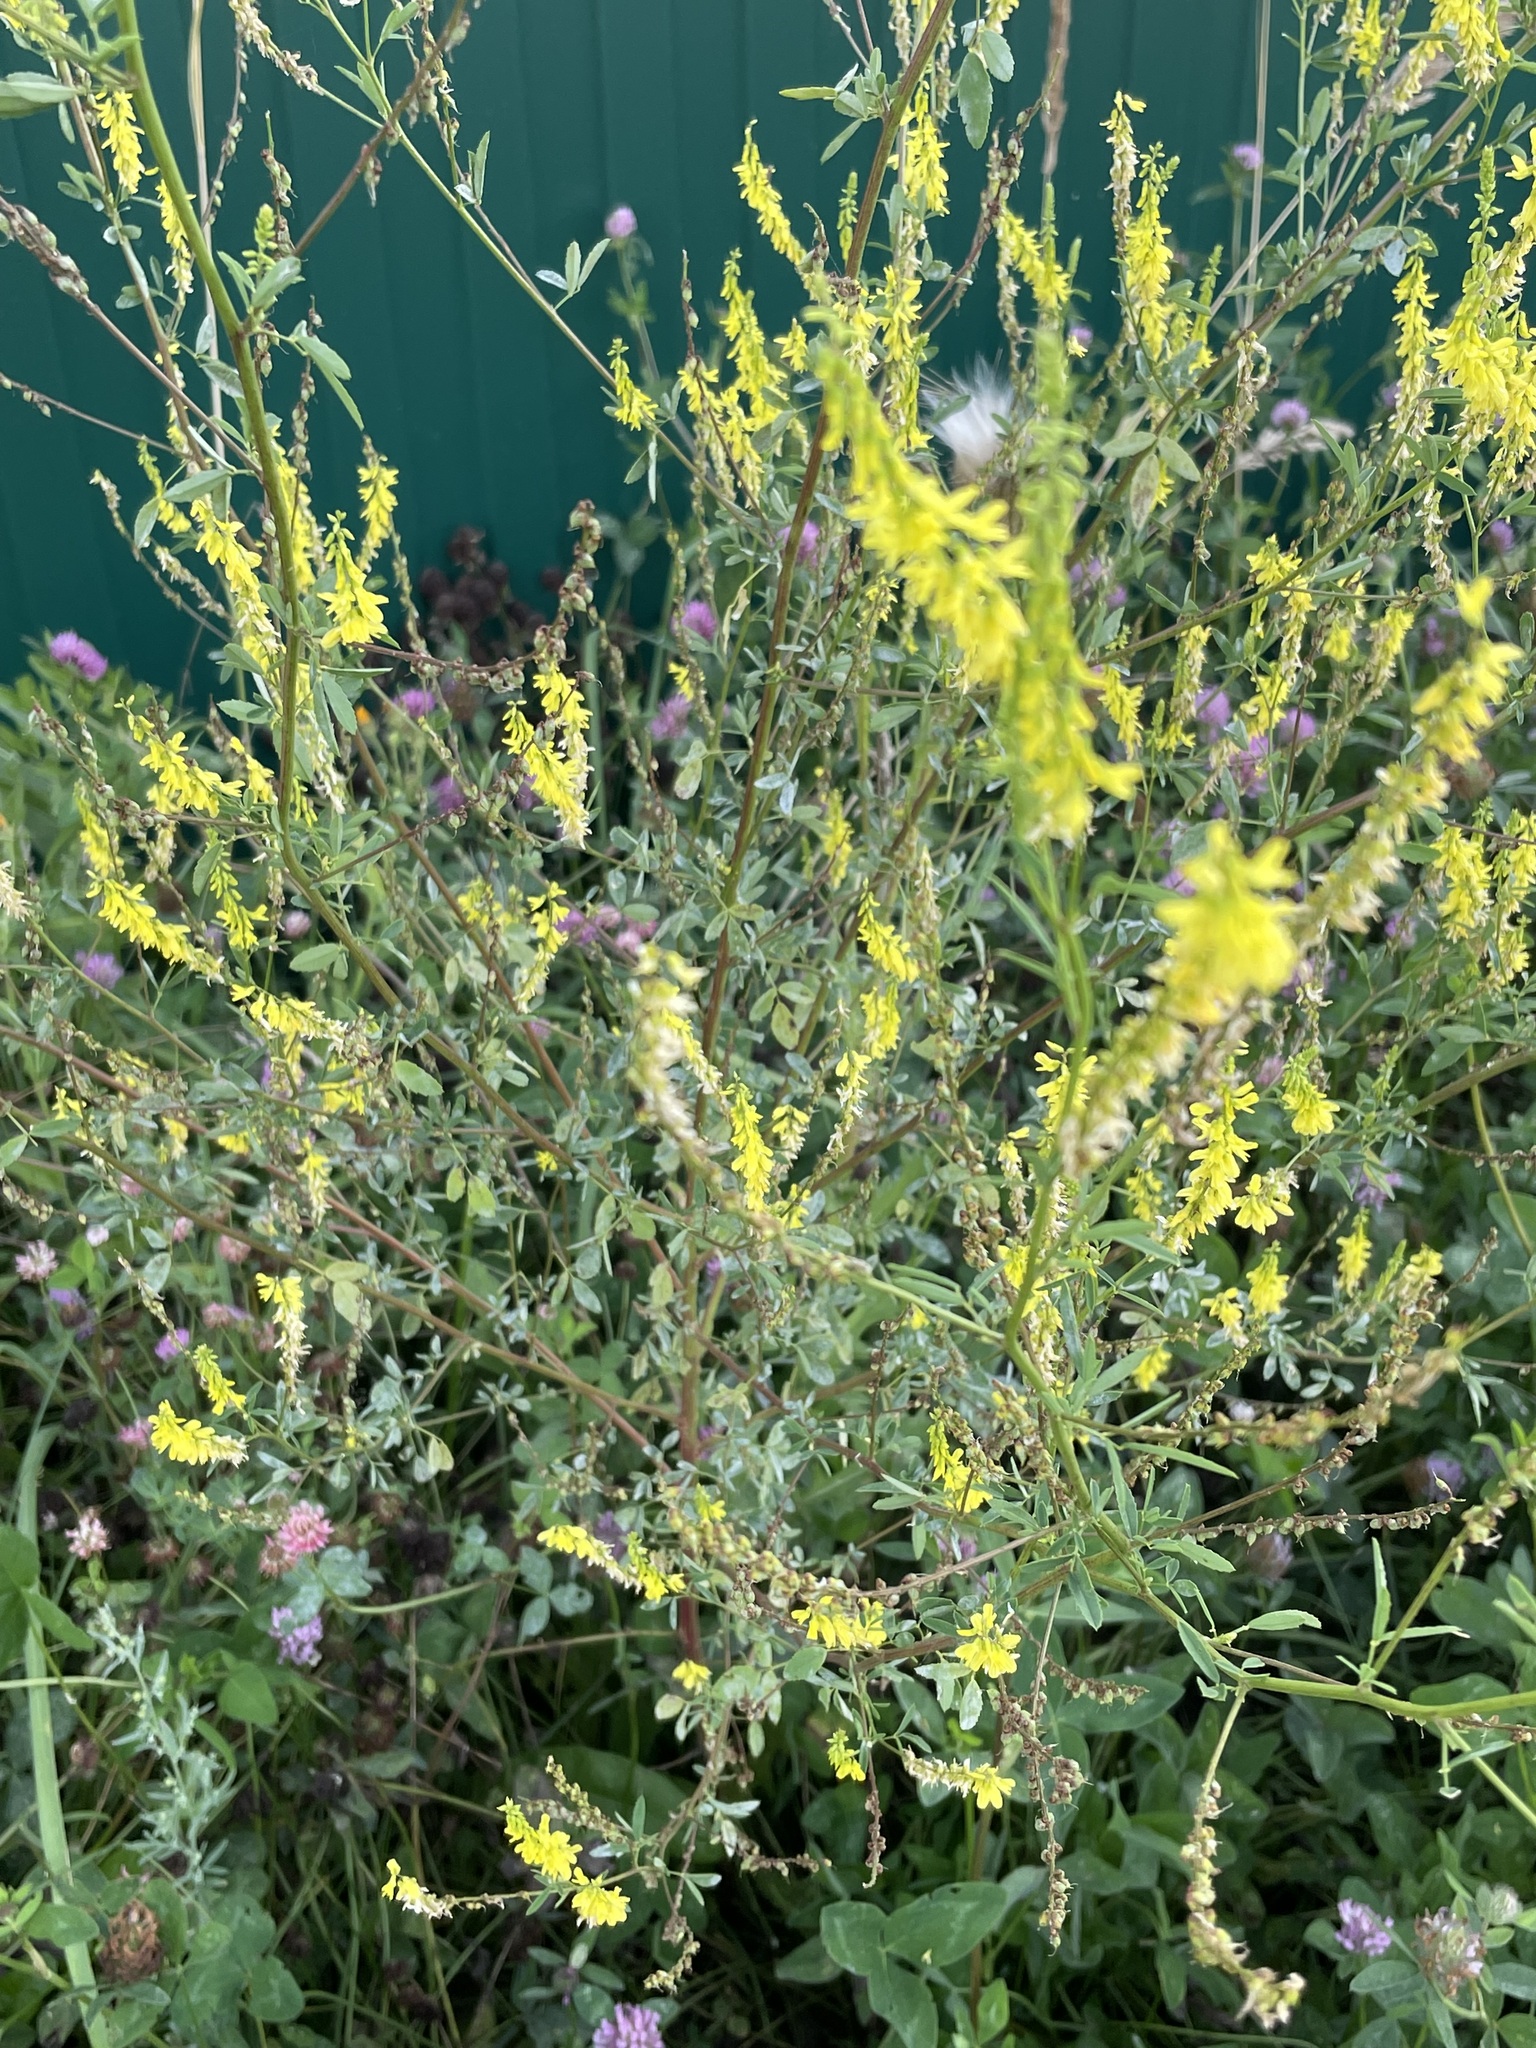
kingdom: Plantae
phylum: Tracheophyta
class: Magnoliopsida
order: Fabales
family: Fabaceae
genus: Melilotus
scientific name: Melilotus officinalis
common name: Sweetclover
